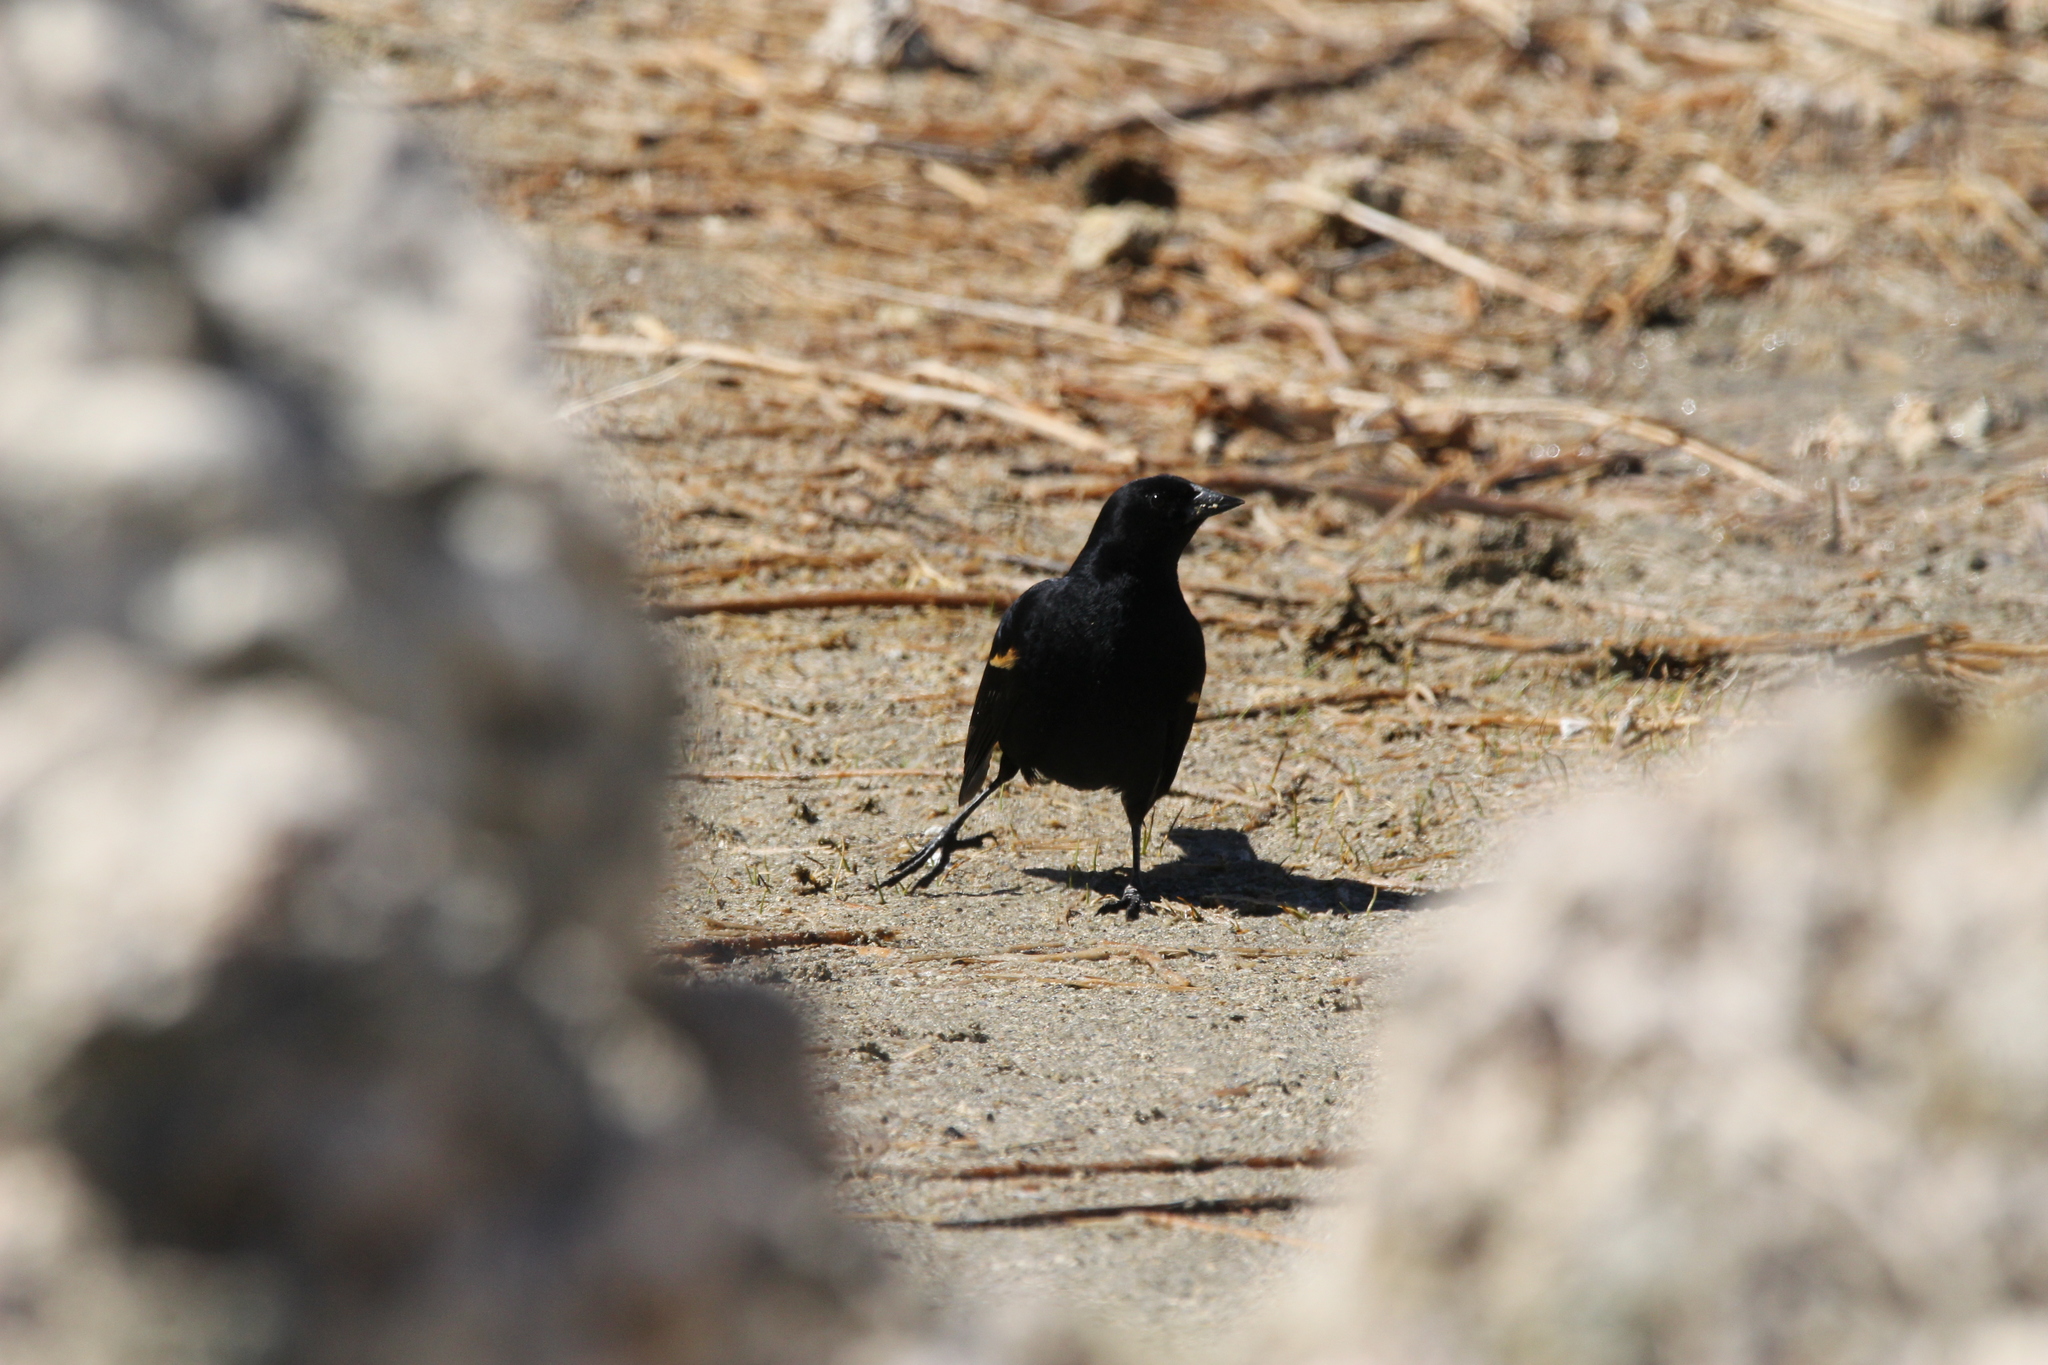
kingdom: Animalia
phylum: Chordata
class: Aves
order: Passeriformes
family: Icteridae
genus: Agelaius
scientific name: Agelaius phoeniceus
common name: Red-winged blackbird
